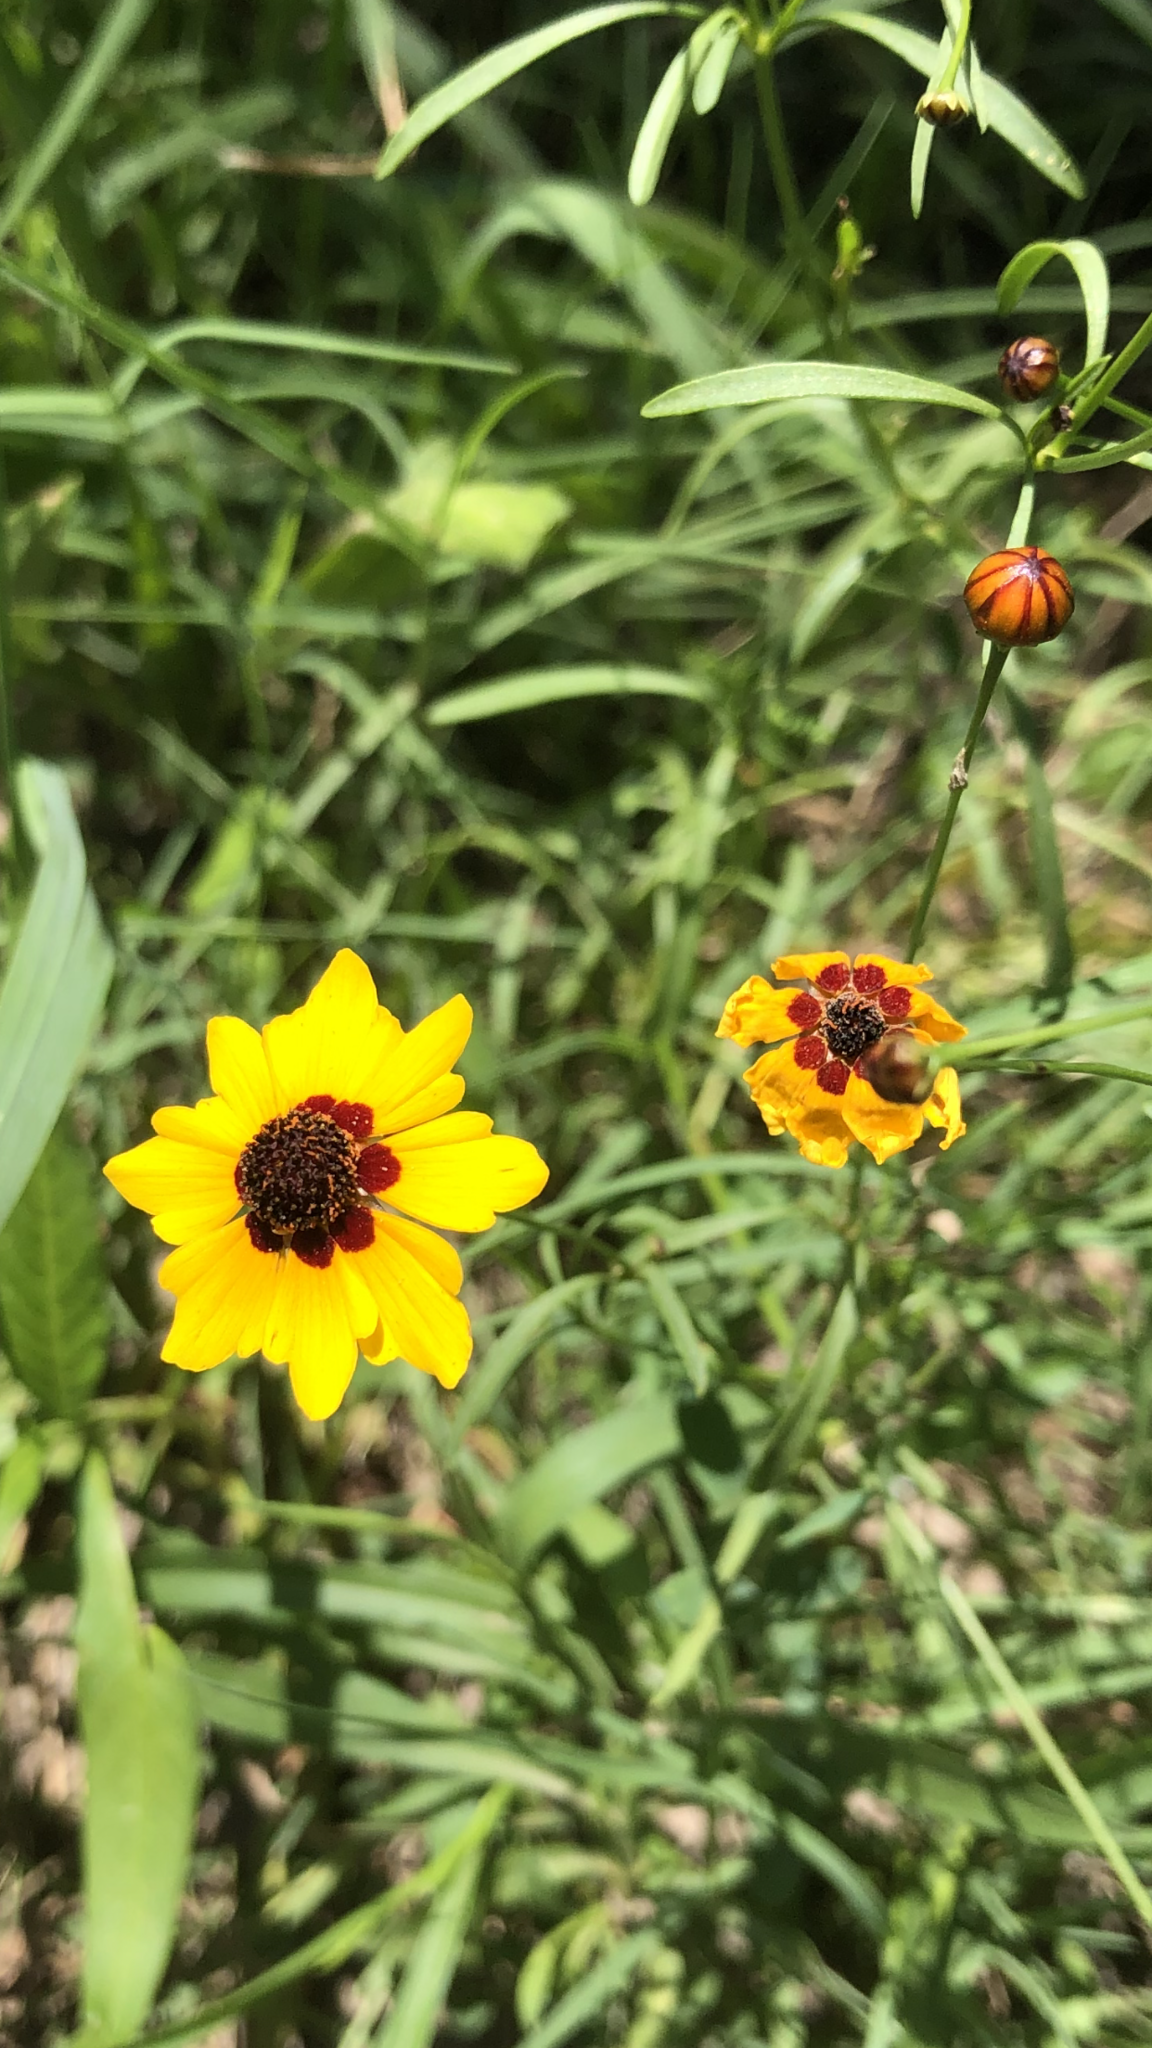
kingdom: Plantae
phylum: Tracheophyta
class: Magnoliopsida
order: Asterales
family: Asteraceae
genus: Coreopsis
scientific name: Coreopsis tinctoria
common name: Garden tickseed
